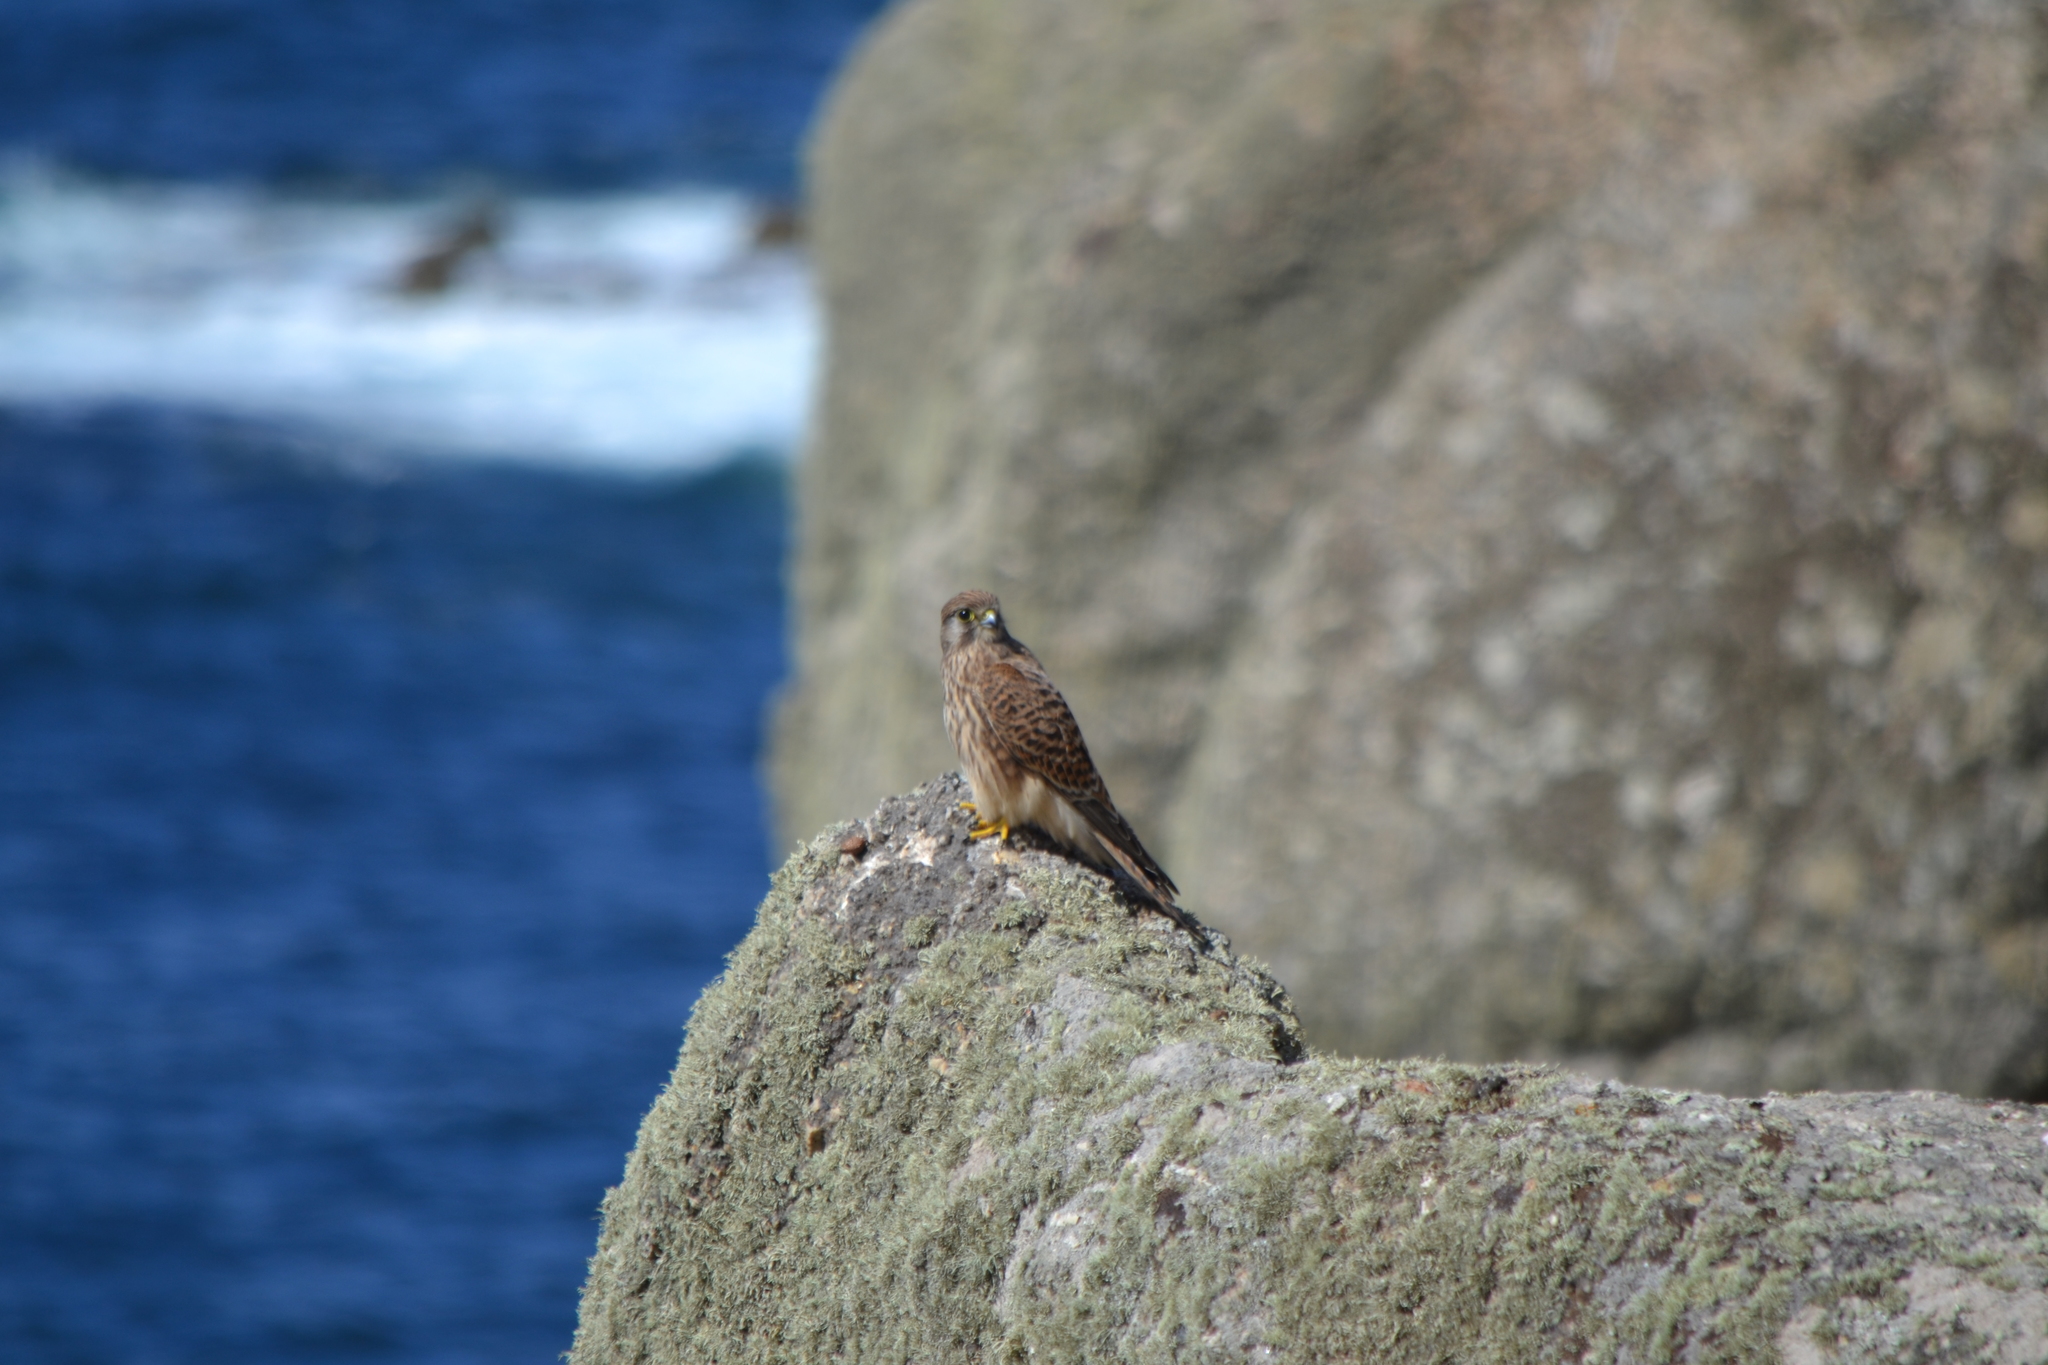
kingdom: Animalia
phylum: Chordata
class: Aves
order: Falconiformes
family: Falconidae
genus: Falco
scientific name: Falco tinnunculus
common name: Common kestrel
